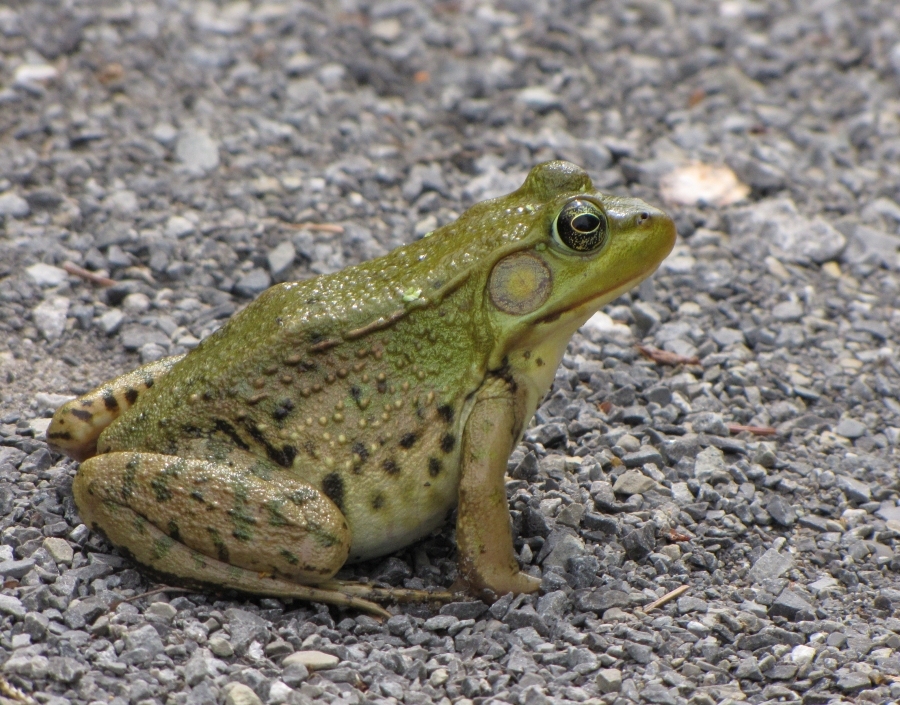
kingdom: Animalia
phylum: Chordata
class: Amphibia
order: Anura
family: Ranidae
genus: Lithobates
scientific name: Lithobates clamitans
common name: Green frog
